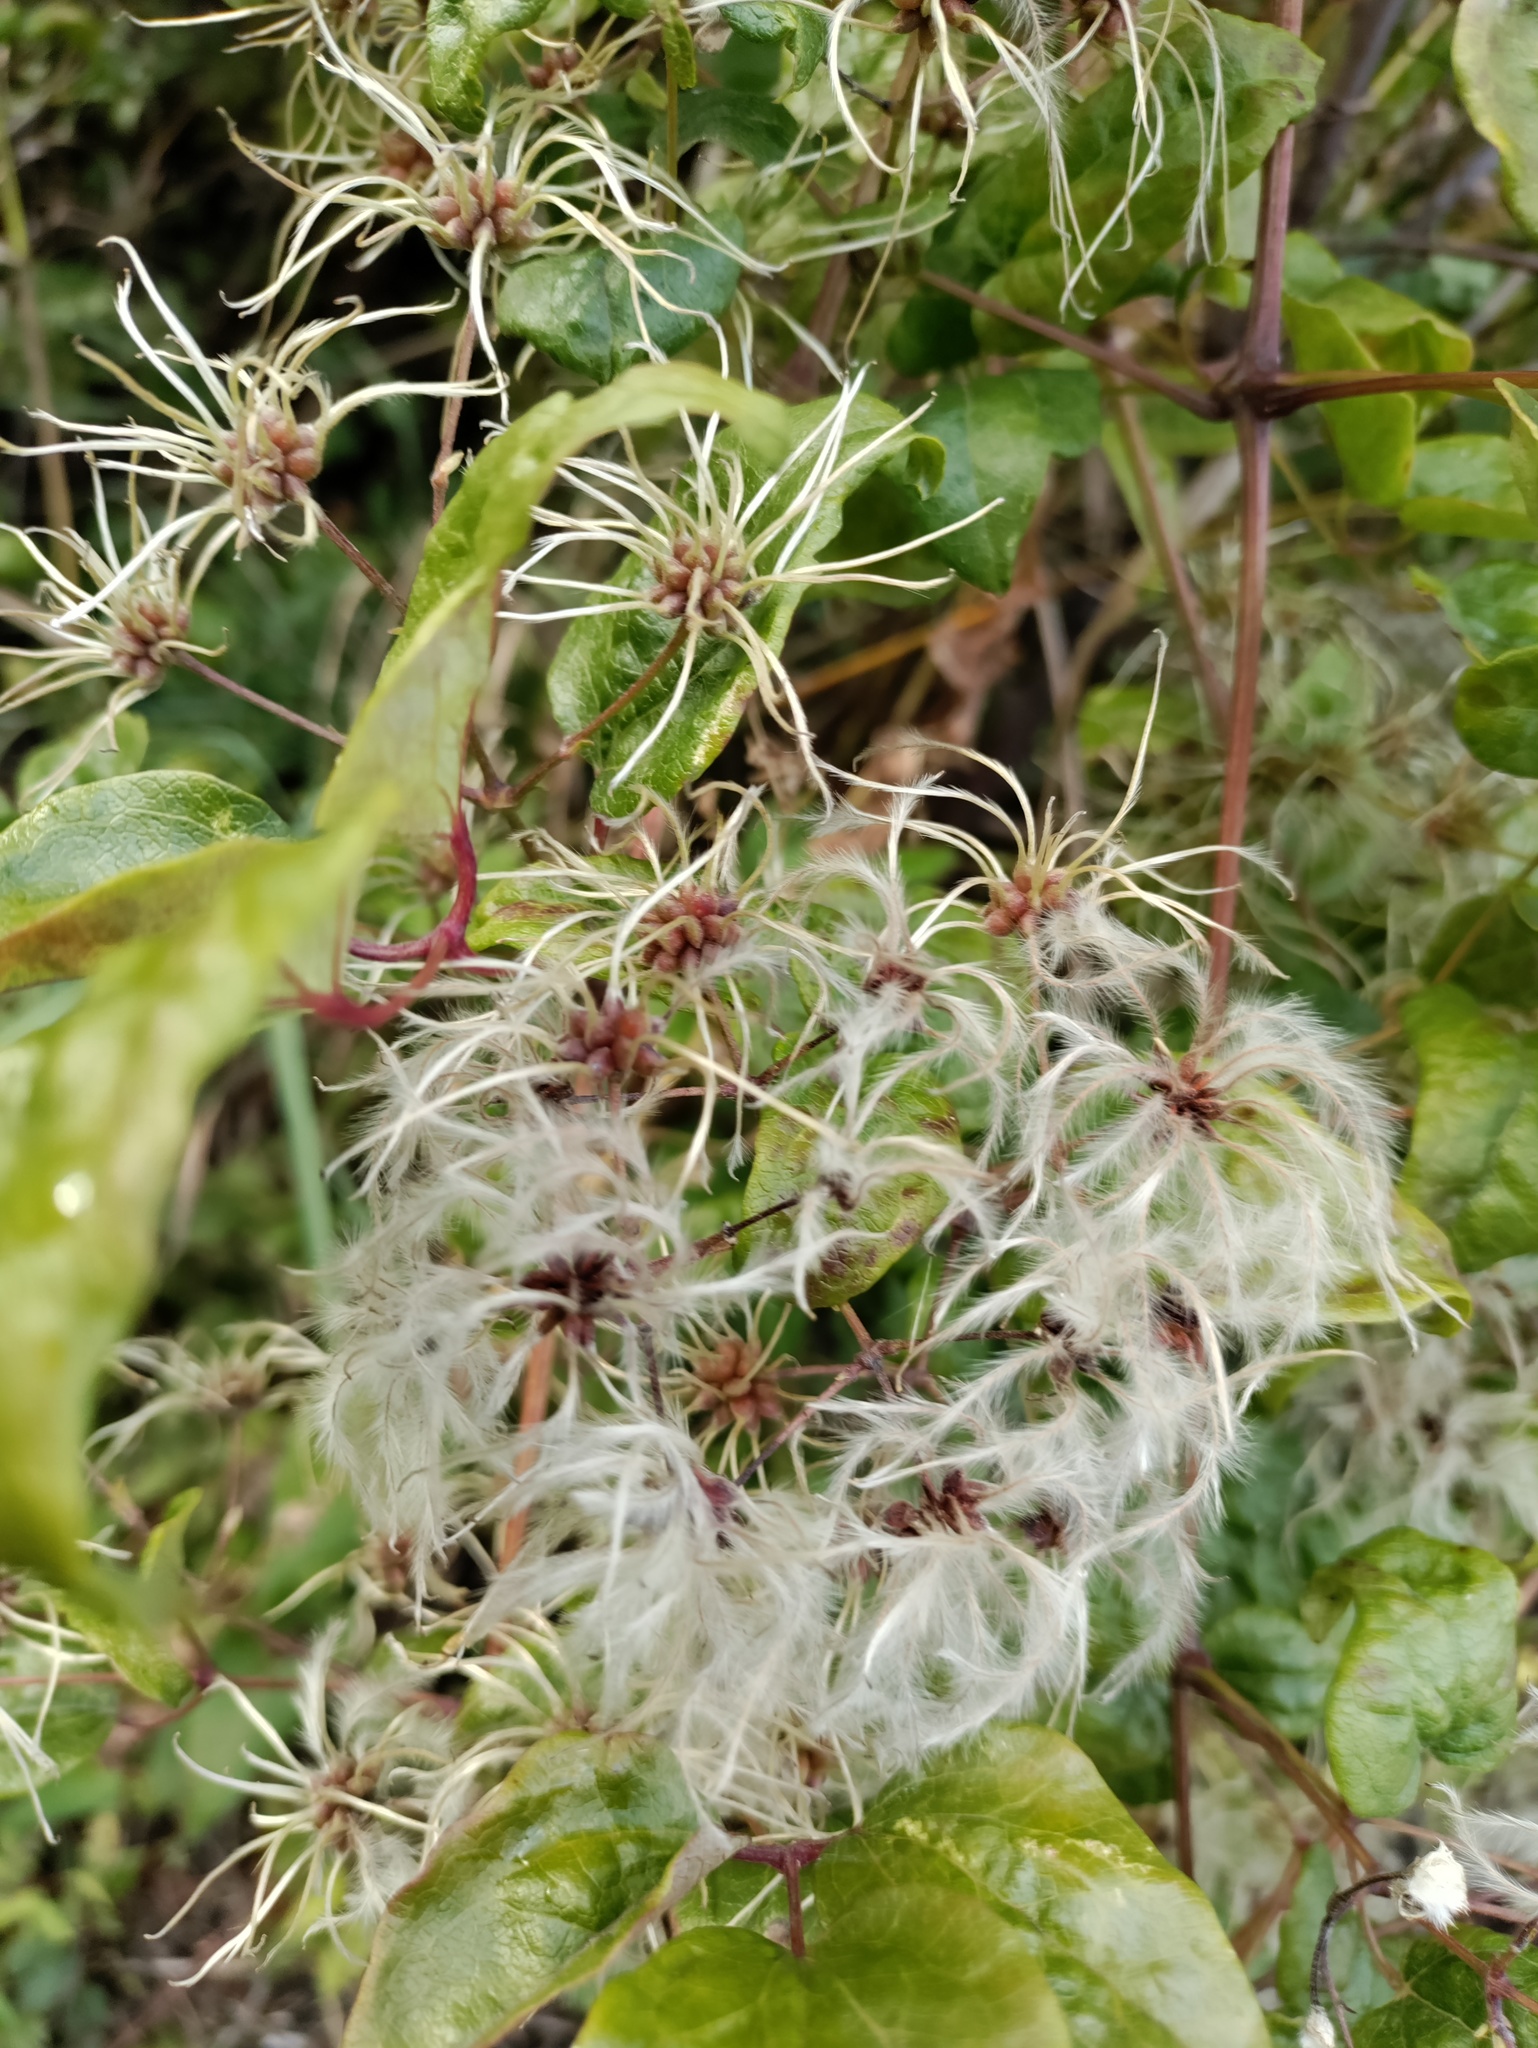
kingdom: Plantae
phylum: Tracheophyta
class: Magnoliopsida
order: Ranunculales
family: Ranunculaceae
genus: Clematis
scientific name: Clematis vitalba
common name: Evergreen clematis
